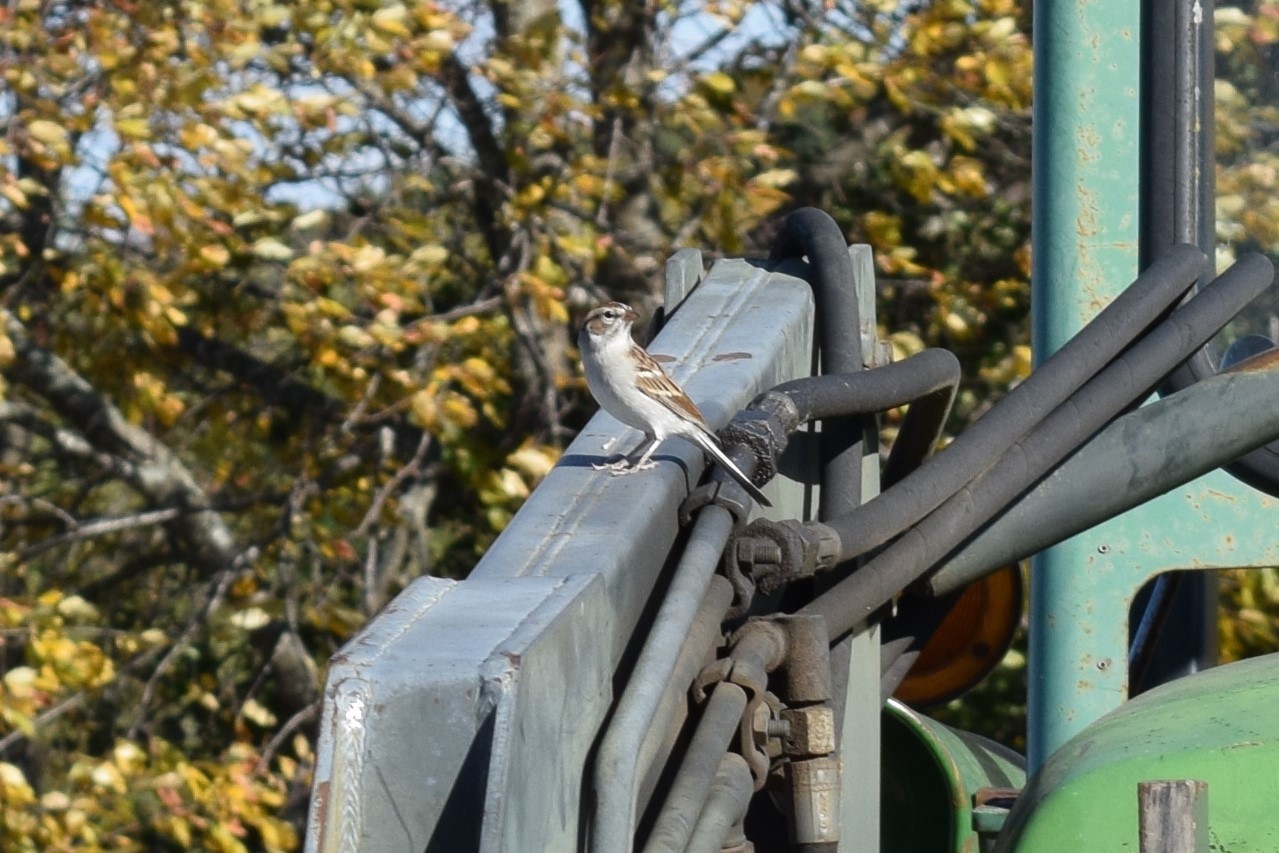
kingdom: Animalia
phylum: Chordata
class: Aves
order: Passeriformes
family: Passerellidae
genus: Spizella
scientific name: Spizella passerina
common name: Chipping sparrow
